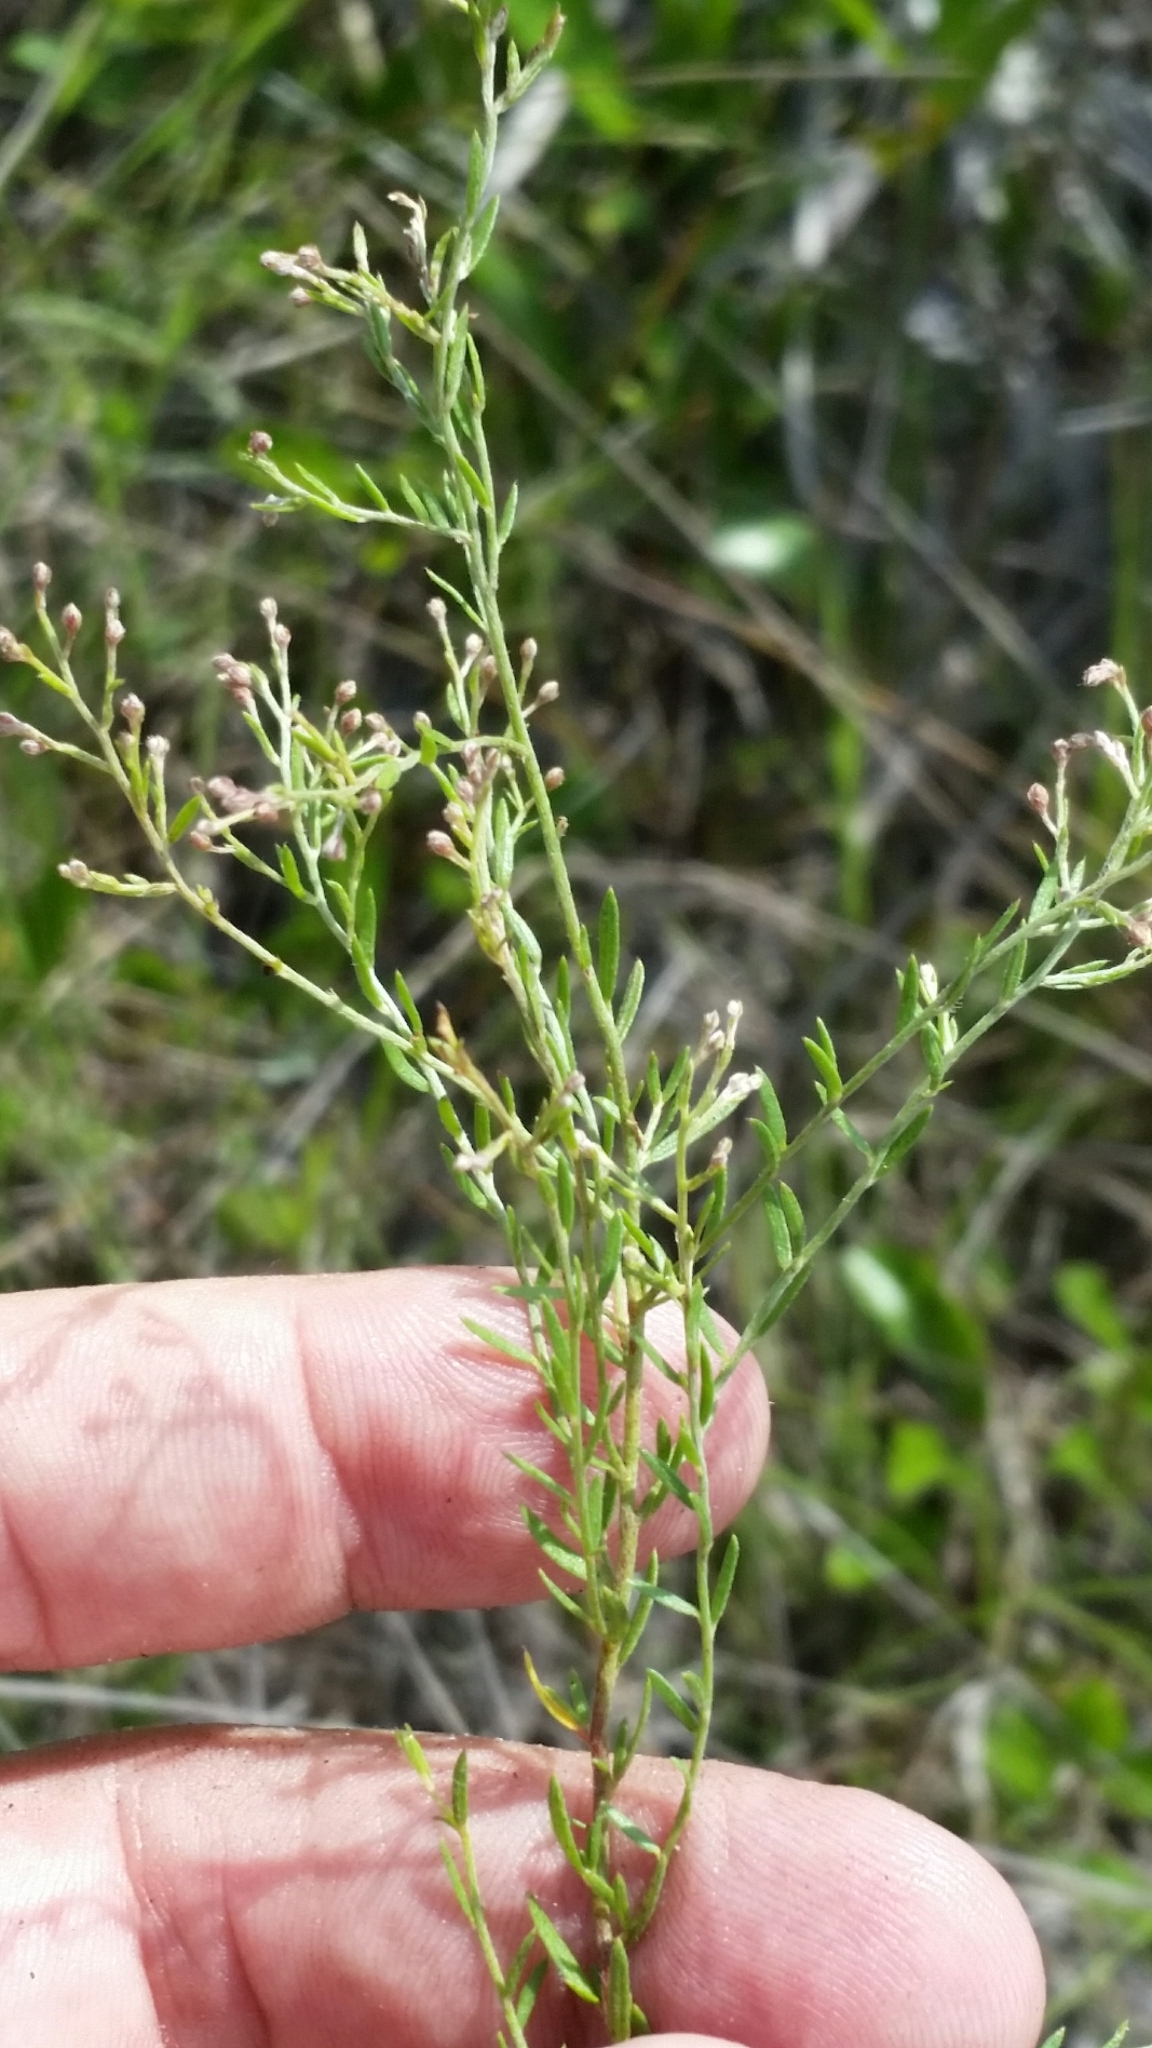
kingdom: Plantae
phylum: Tracheophyta
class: Magnoliopsida
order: Malvales
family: Cistaceae
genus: Lechea
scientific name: Lechea torreyi
